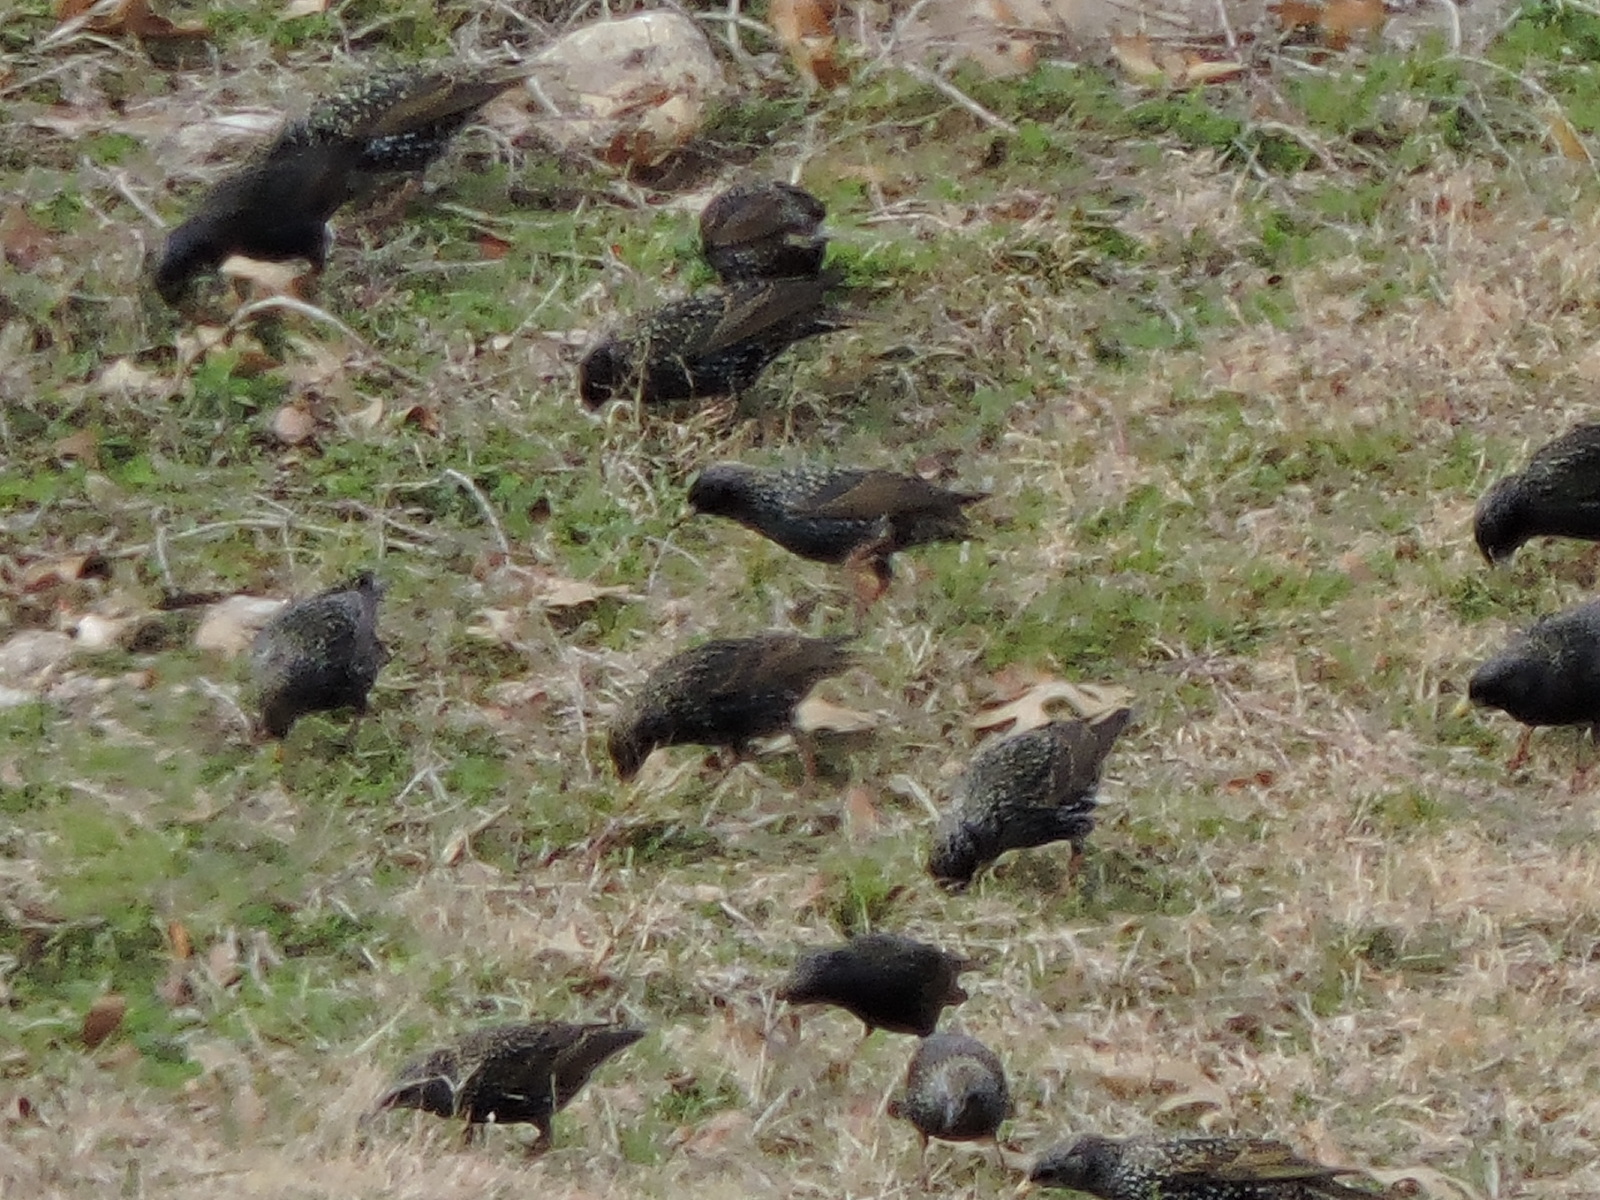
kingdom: Animalia
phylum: Chordata
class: Aves
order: Passeriformes
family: Sturnidae
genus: Sturnus
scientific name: Sturnus vulgaris
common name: Common starling
